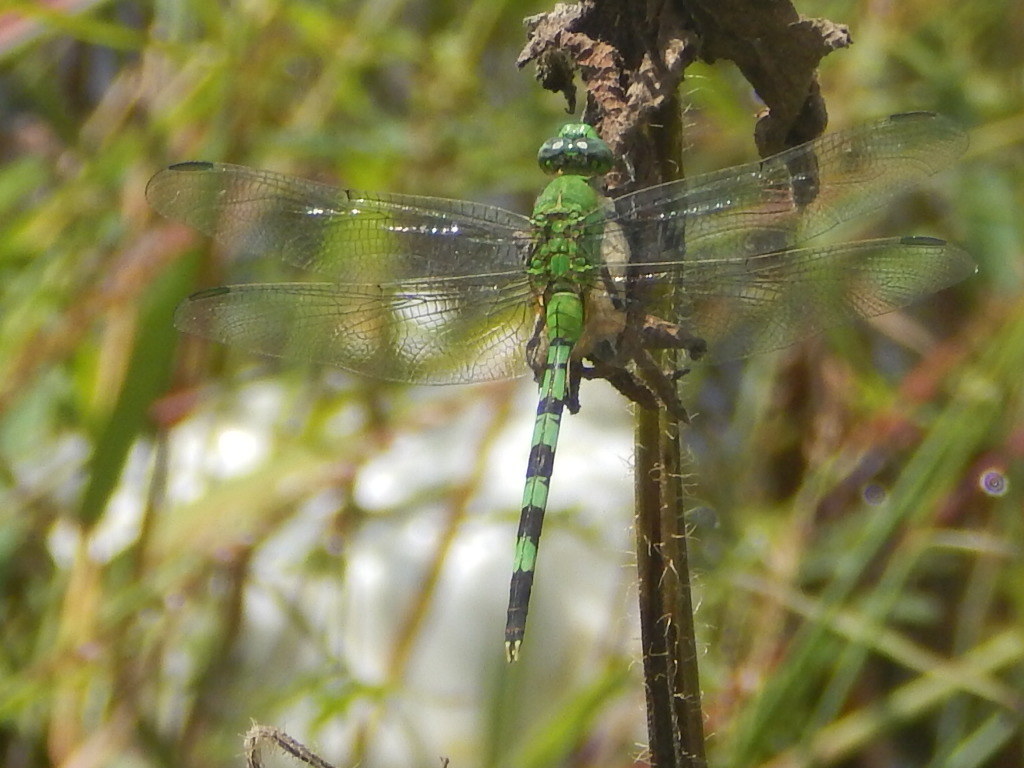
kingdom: Animalia
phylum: Arthropoda
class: Insecta
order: Odonata
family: Libellulidae
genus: Erythemis
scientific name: Erythemis vesiculosa
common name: Great pondhawk
